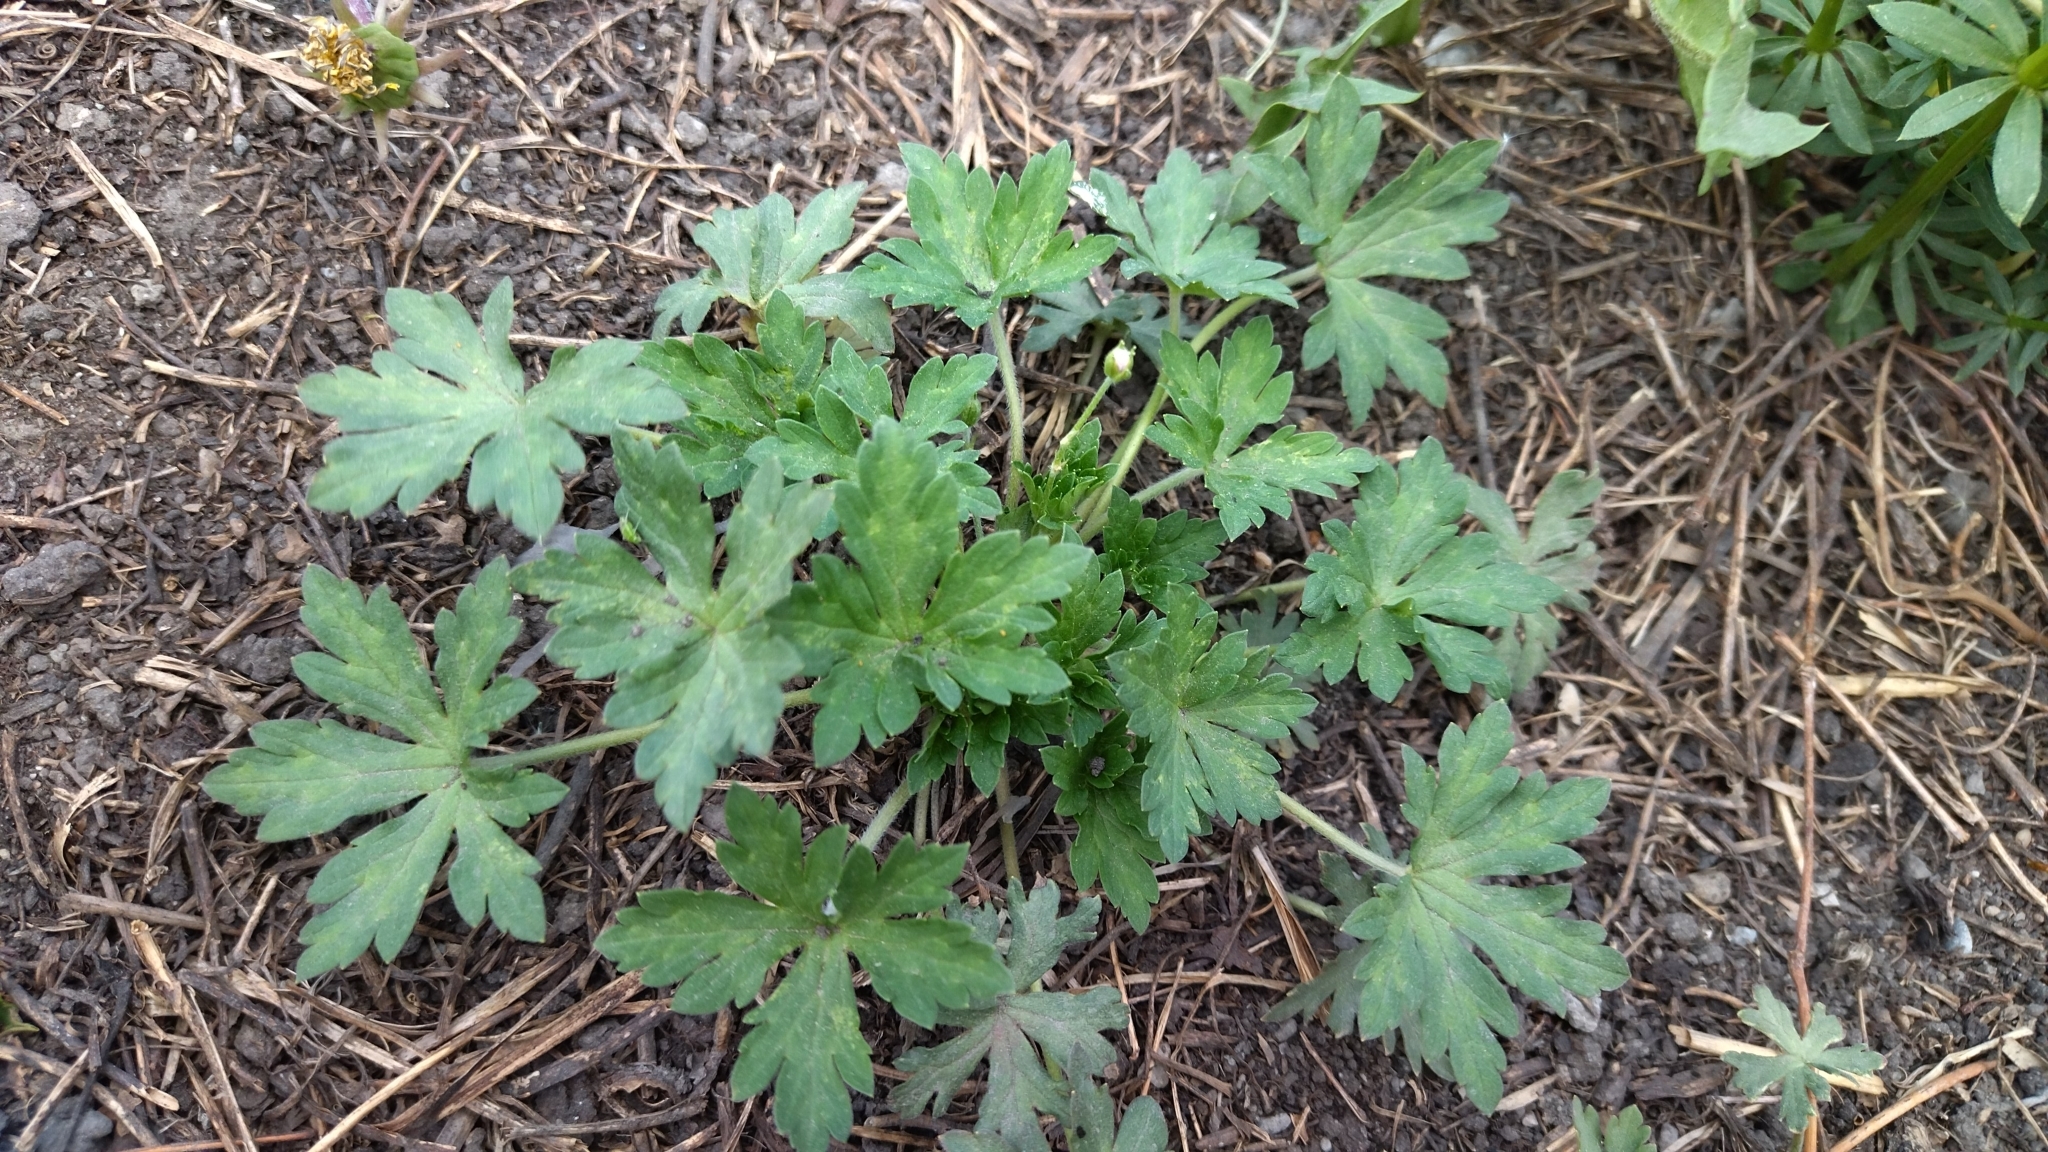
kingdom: Plantae
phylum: Tracheophyta
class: Magnoliopsida
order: Geraniales
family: Geraniaceae
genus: Geranium
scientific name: Geranium sibiricum
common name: Siberian crane's-bill
